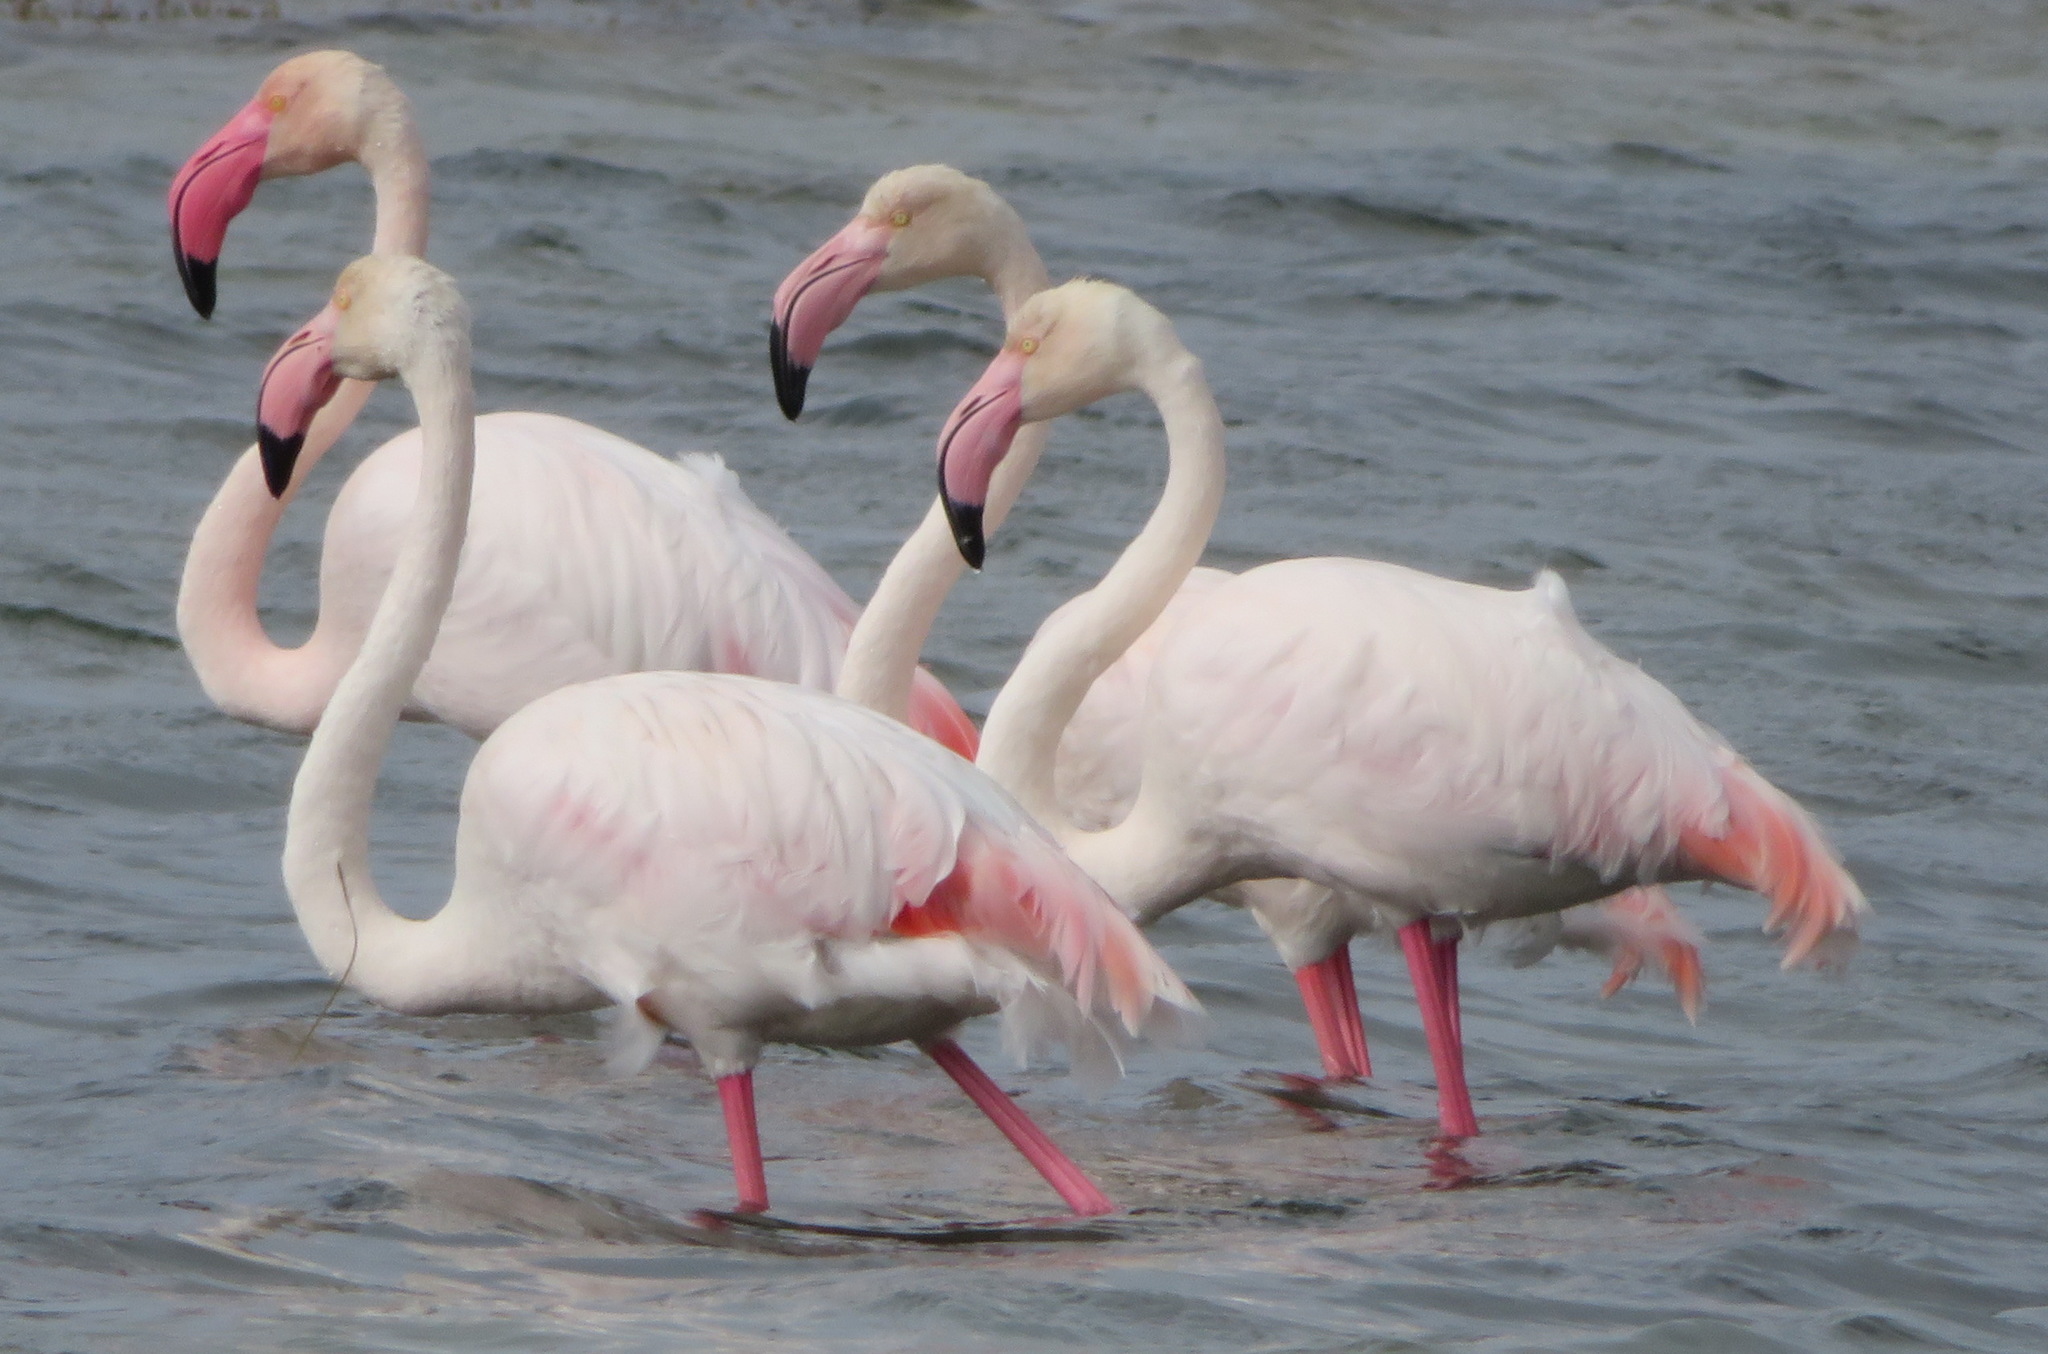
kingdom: Animalia
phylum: Chordata
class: Aves
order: Phoenicopteriformes
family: Phoenicopteridae
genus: Phoenicopterus
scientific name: Phoenicopterus roseus
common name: Greater flamingo
